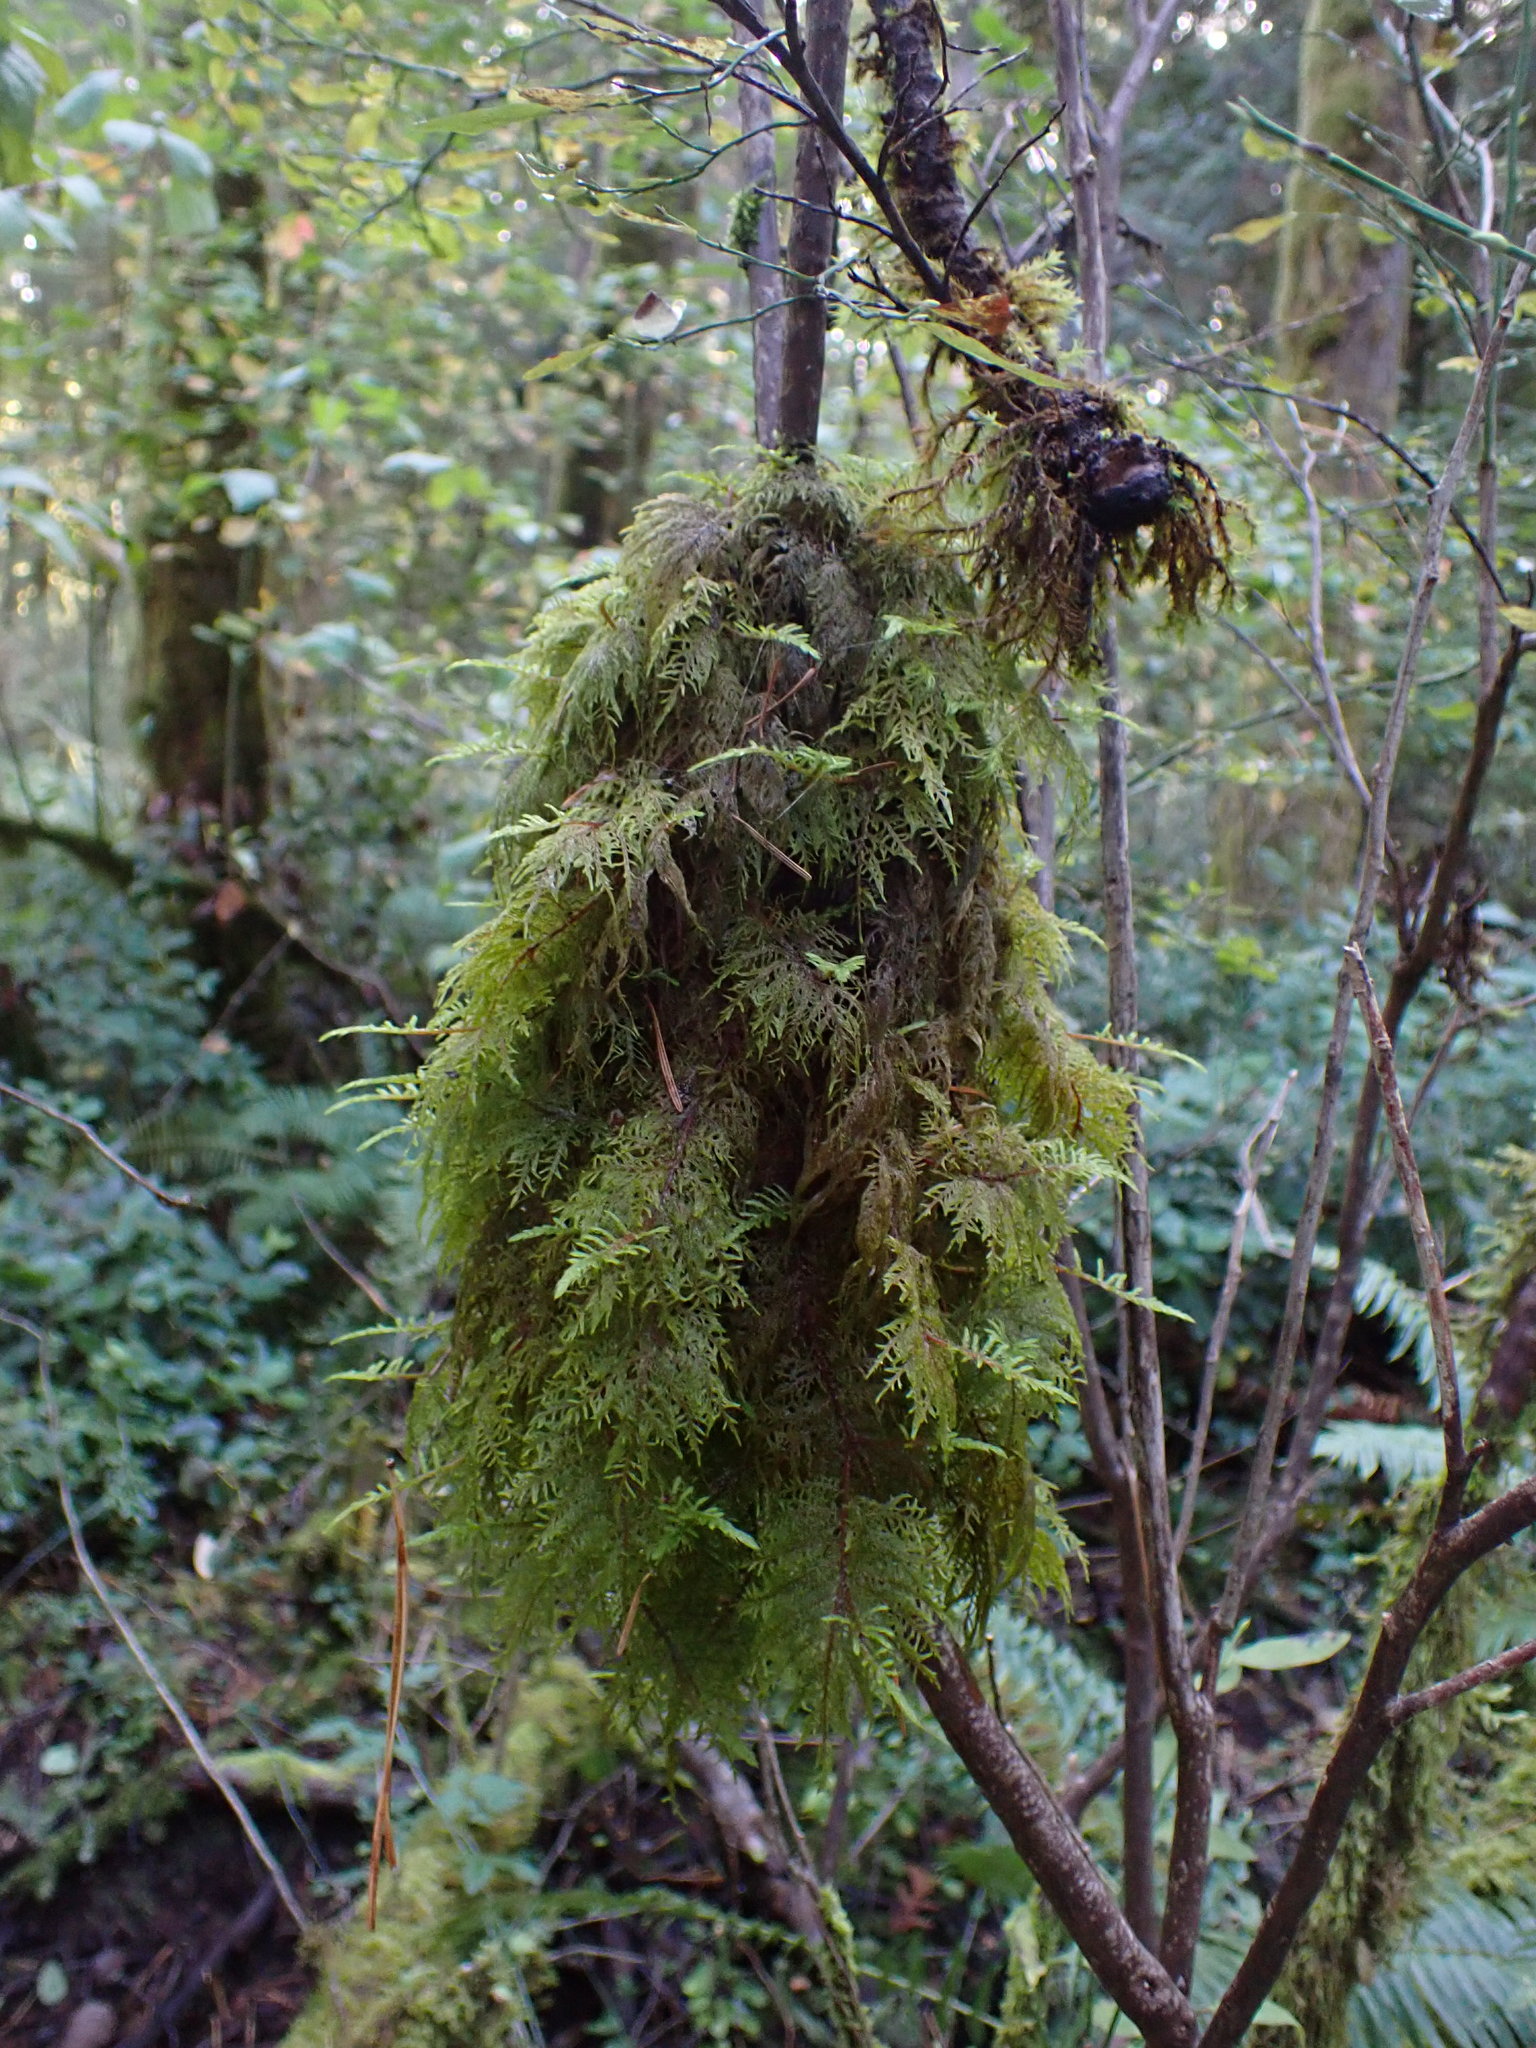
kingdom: Plantae
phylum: Bryophyta
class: Bryopsida
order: Hypnales
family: Hylocomiaceae
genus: Hylocomium
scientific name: Hylocomium splendens
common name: Stairstep moss
